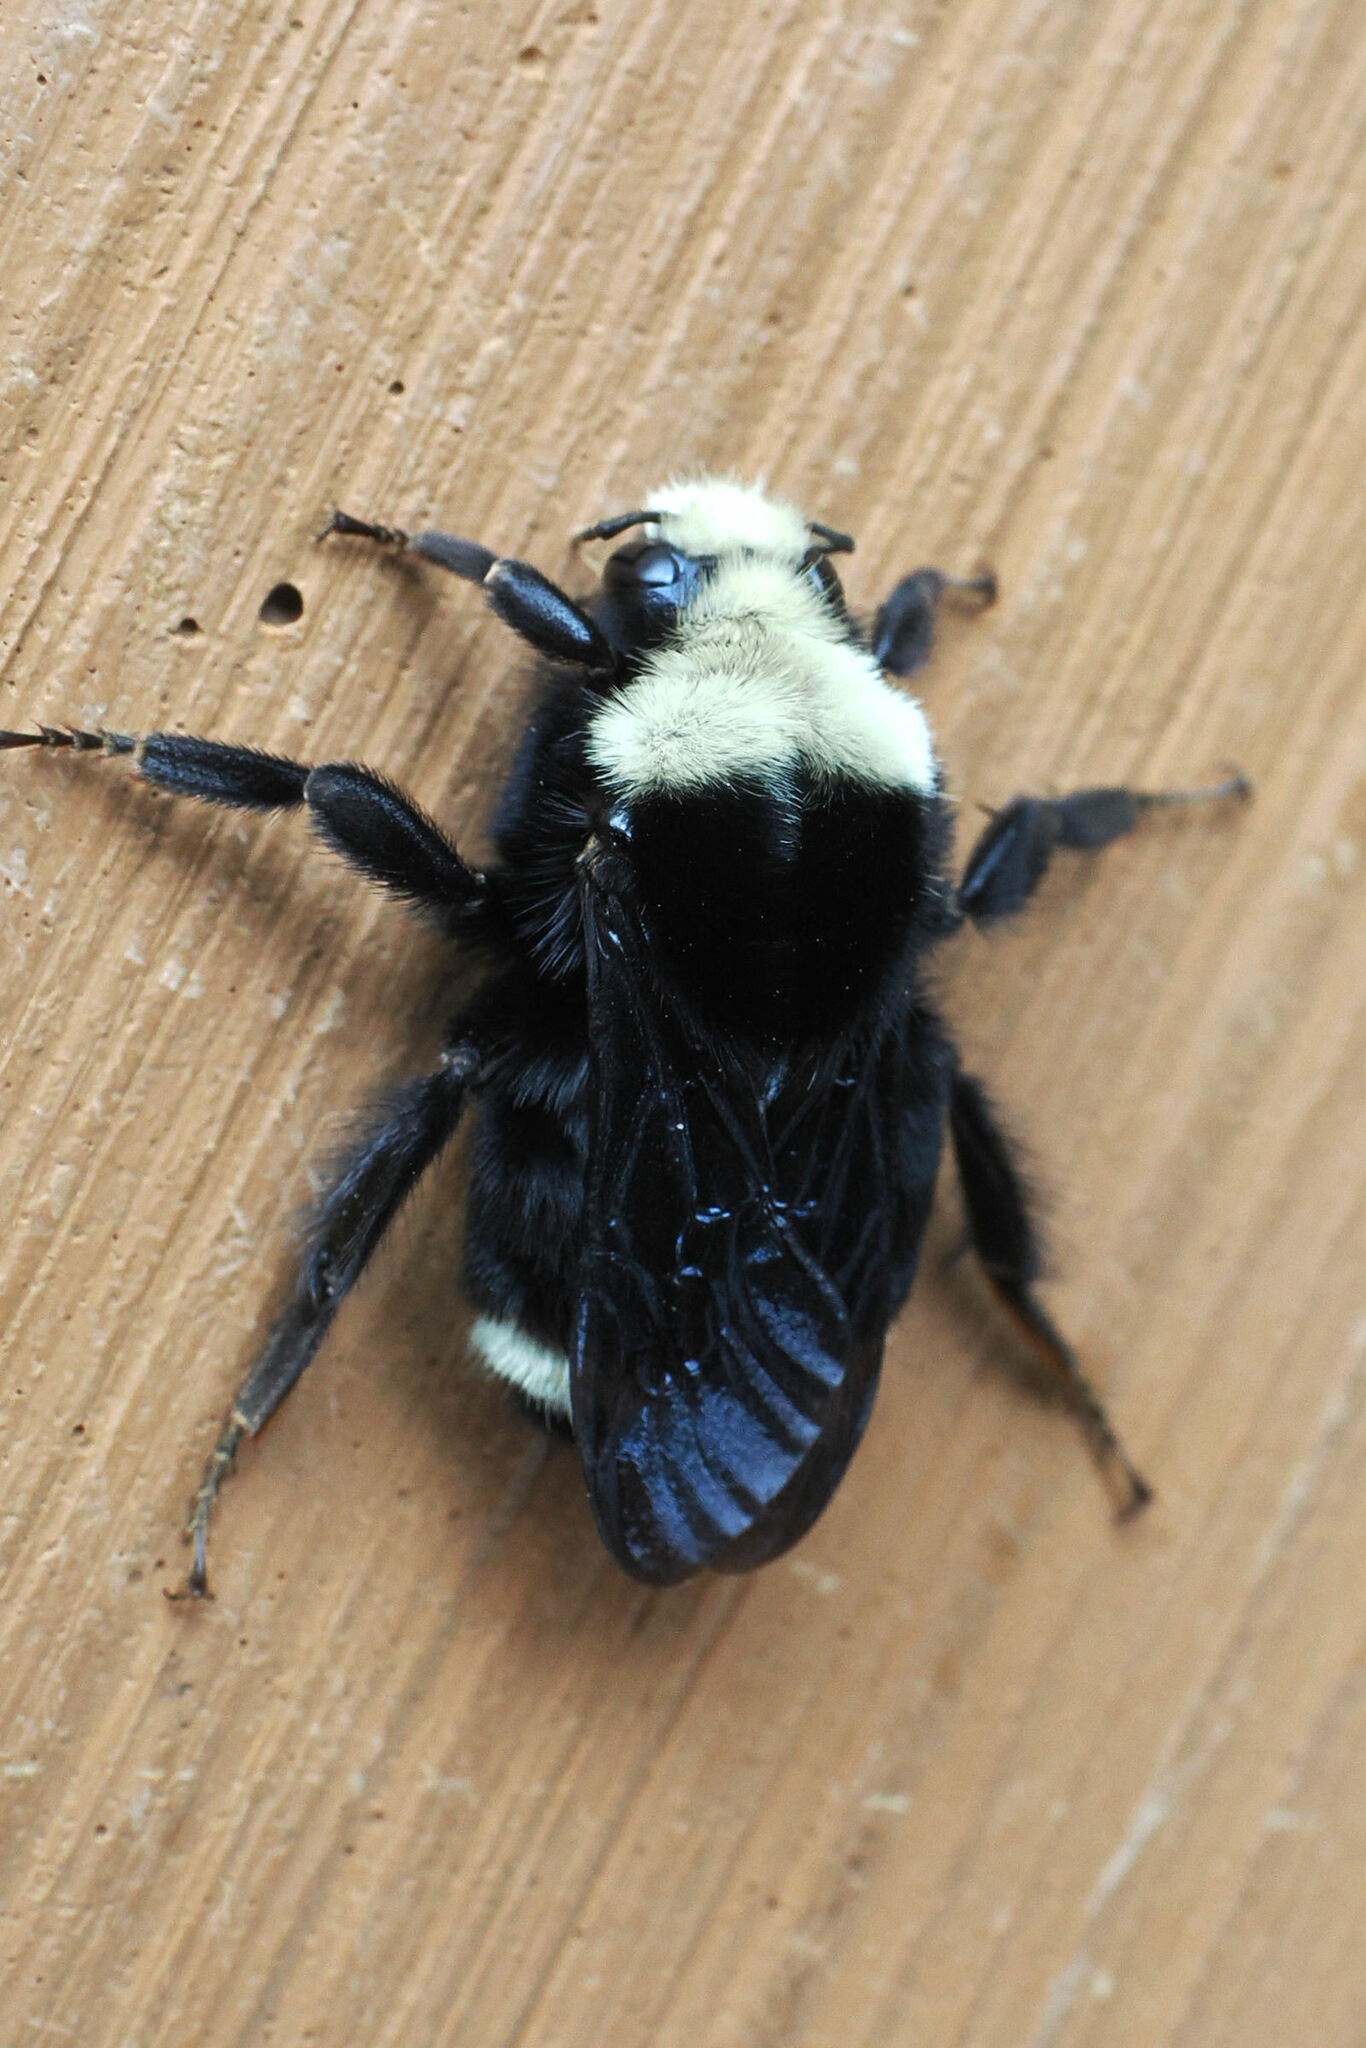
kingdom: Animalia
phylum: Arthropoda
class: Insecta
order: Hymenoptera
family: Apidae
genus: Bombus
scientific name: Bombus vosnesenskii
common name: Vosnesensky bumble bee
